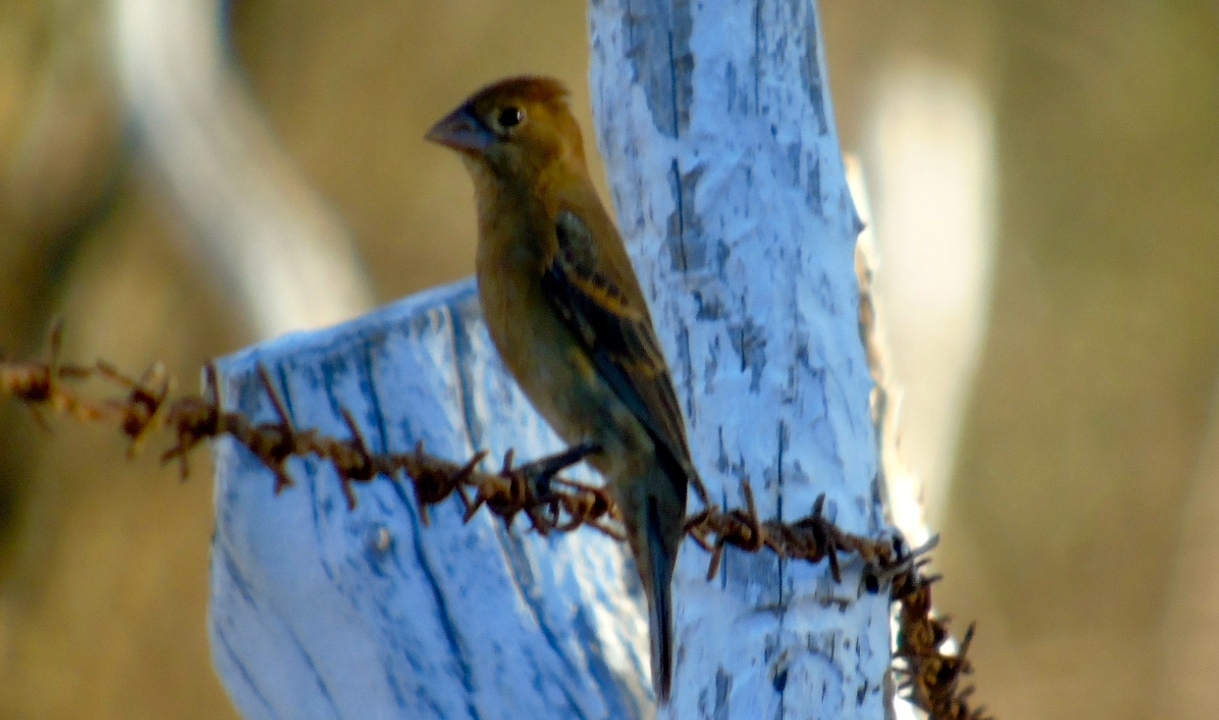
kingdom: Animalia
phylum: Chordata
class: Aves
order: Passeriformes
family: Cardinalidae
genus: Passerina
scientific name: Passerina caerulea
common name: Blue grosbeak
